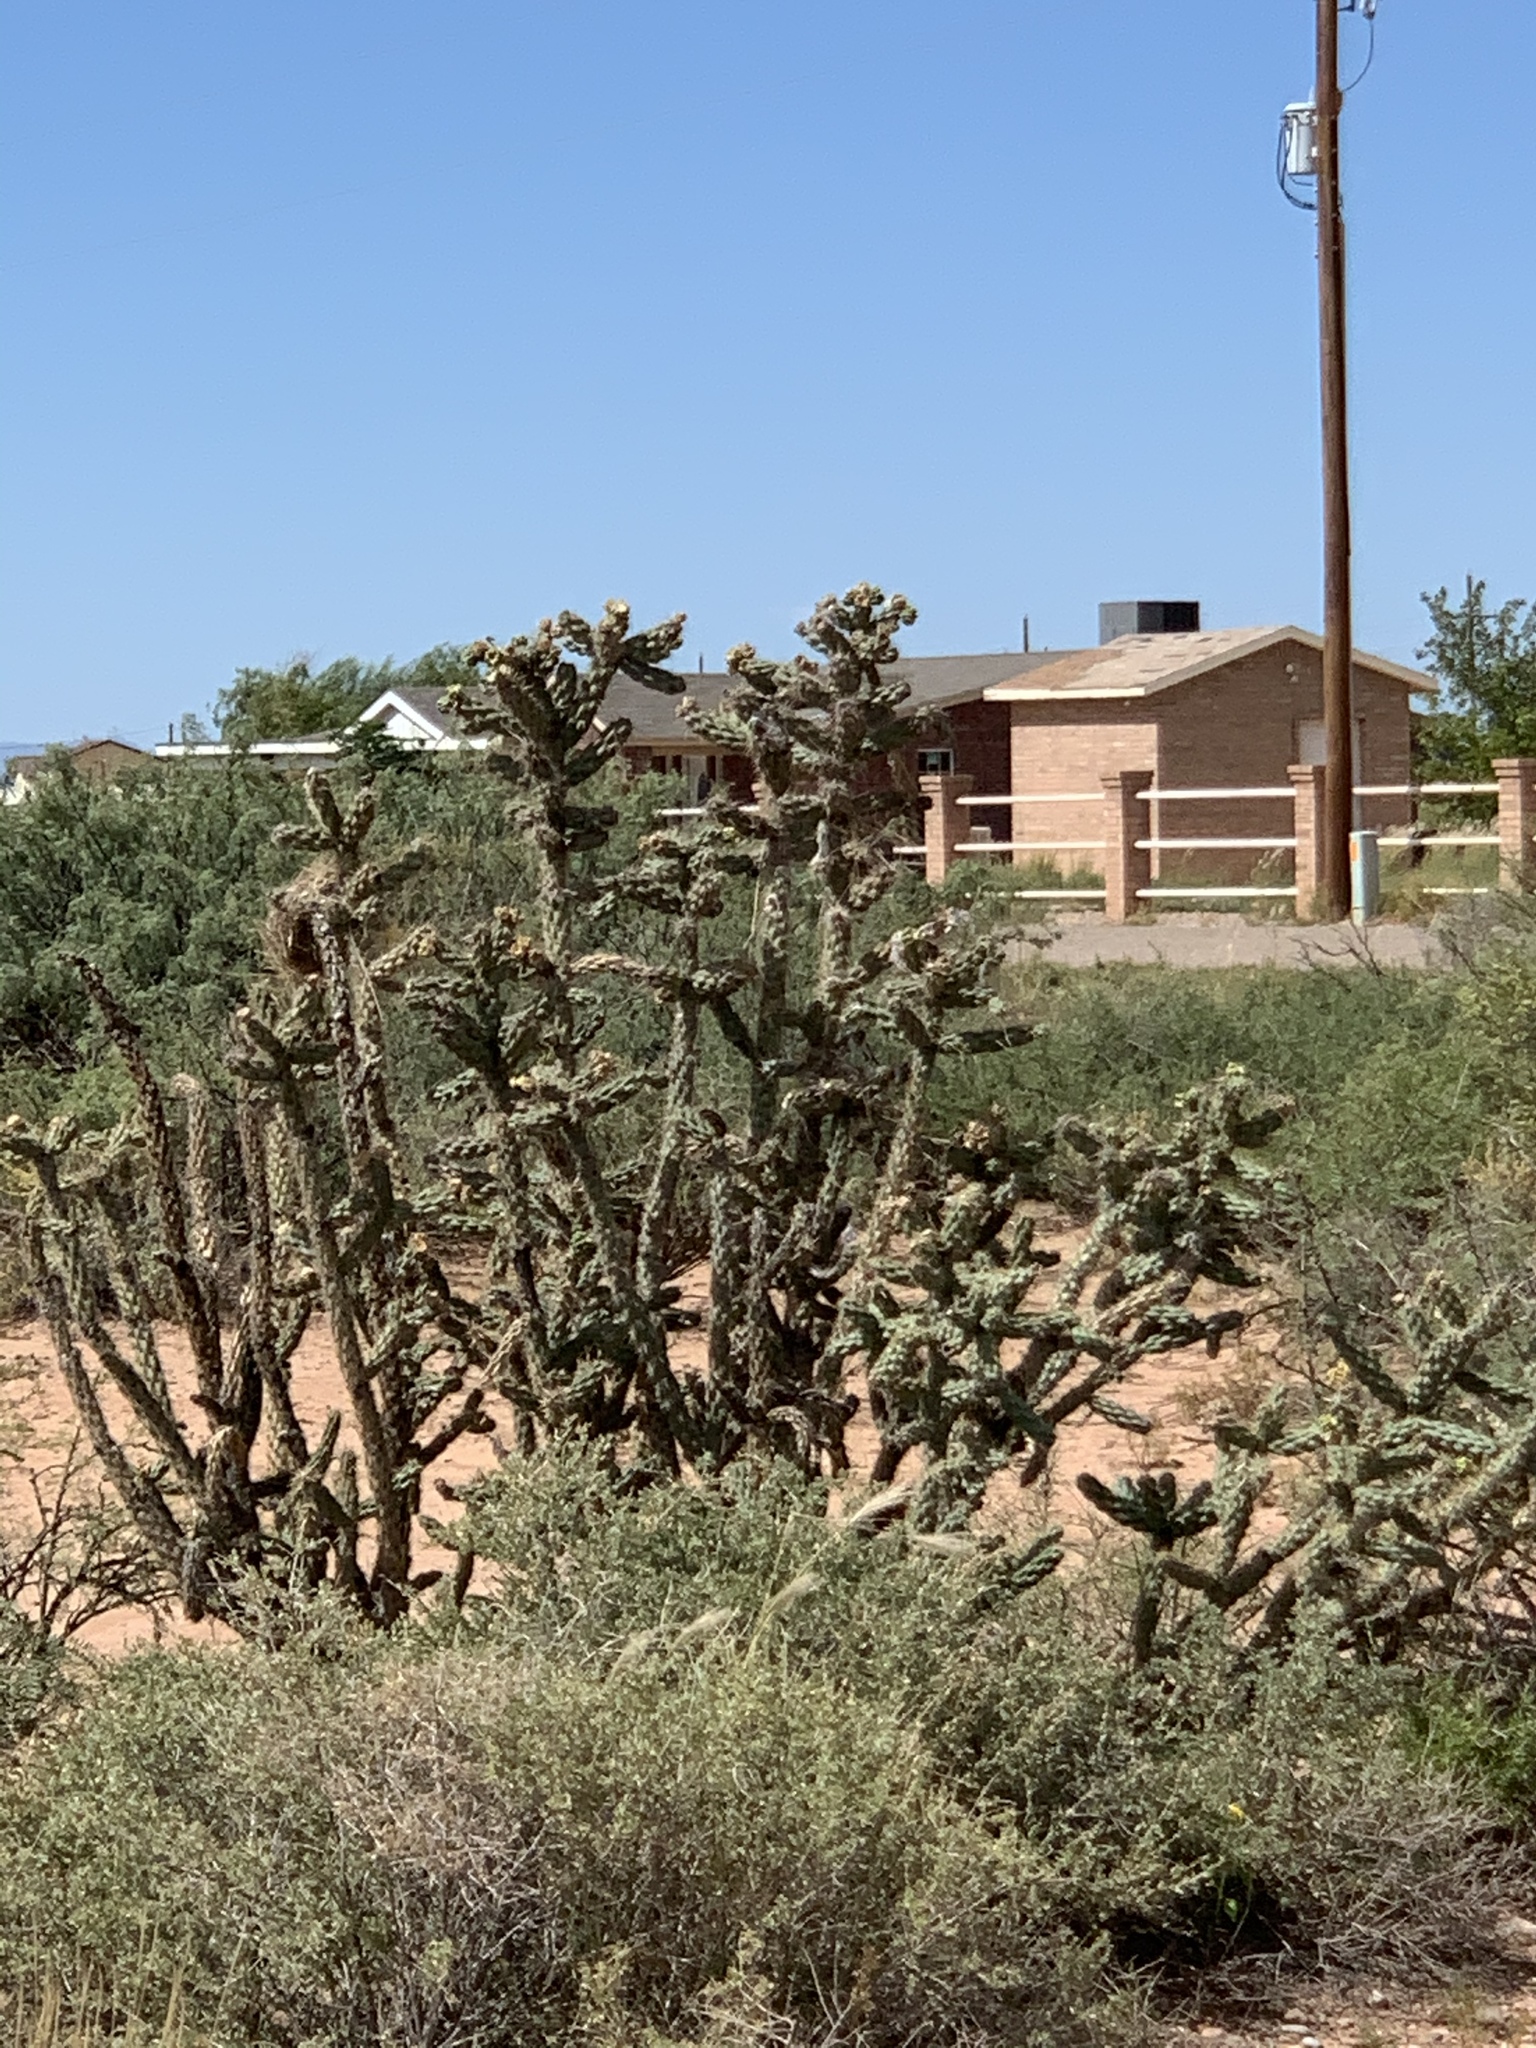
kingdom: Plantae
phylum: Tracheophyta
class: Magnoliopsida
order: Caryophyllales
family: Cactaceae
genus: Cylindropuntia
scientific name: Cylindropuntia imbricata
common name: Candelabrum cactus
